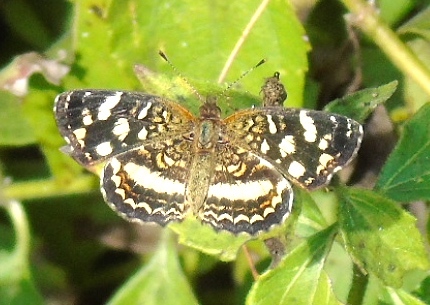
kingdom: Animalia
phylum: Arthropoda
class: Insecta
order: Lepidoptera
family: Nymphalidae
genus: Anthanassa
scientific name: Anthanassa tulcis
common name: Pale-banded crescent
